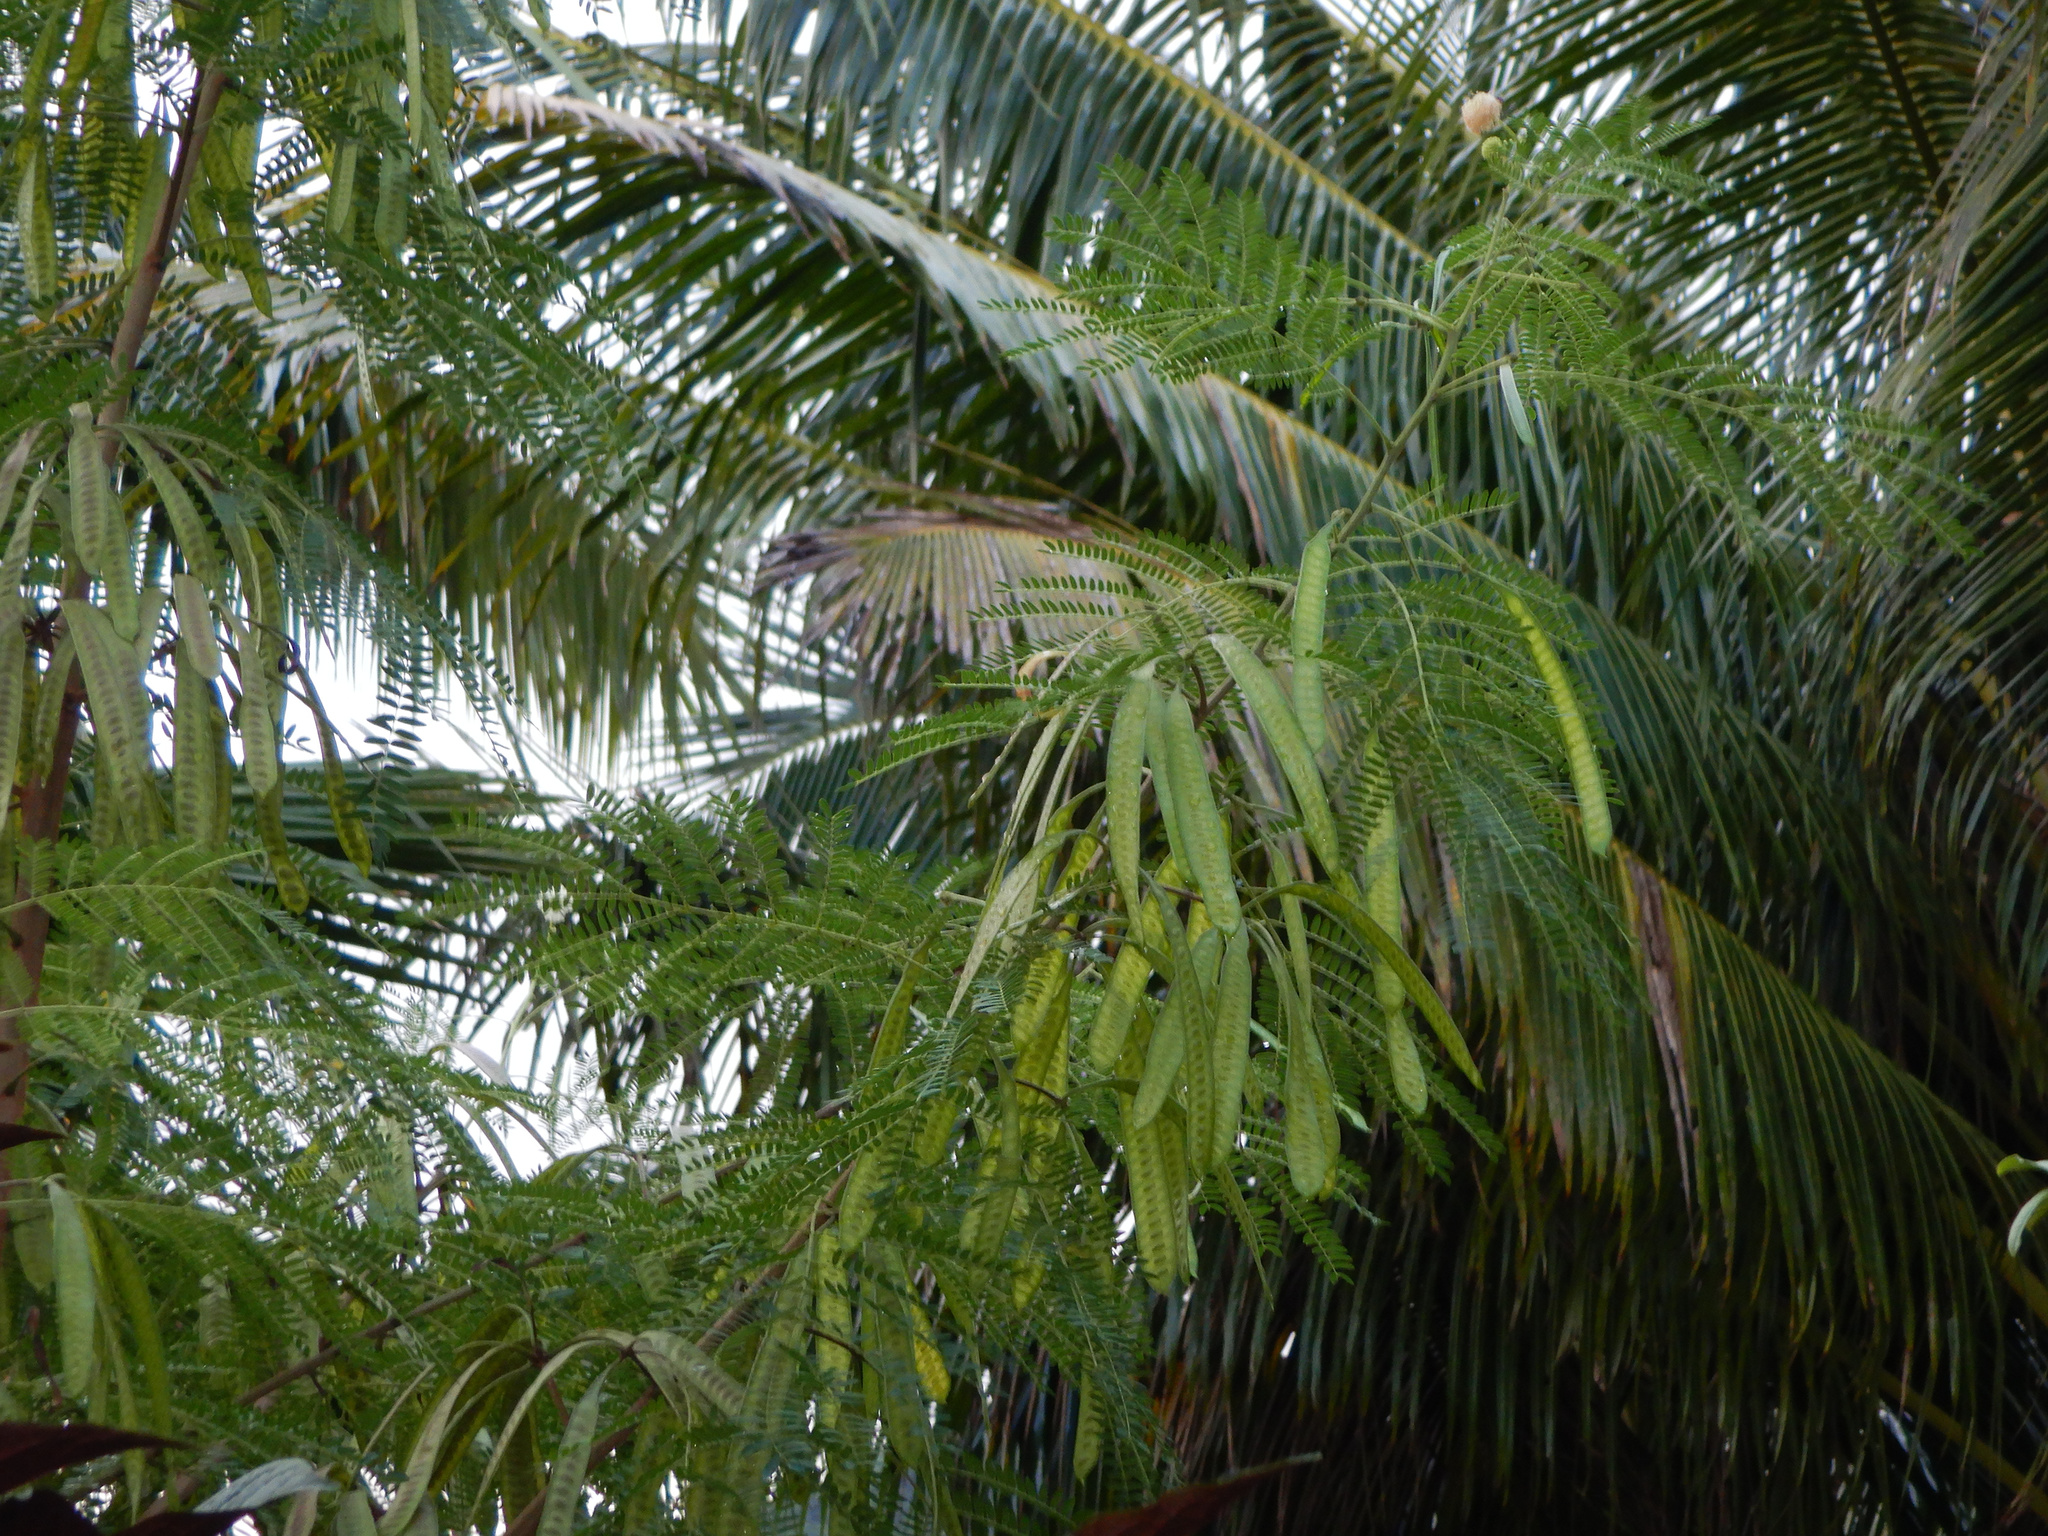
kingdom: Plantae
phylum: Tracheophyta
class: Magnoliopsida
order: Fabales
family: Fabaceae
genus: Leucaena
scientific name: Leucaena leucocephala
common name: White leadtree
